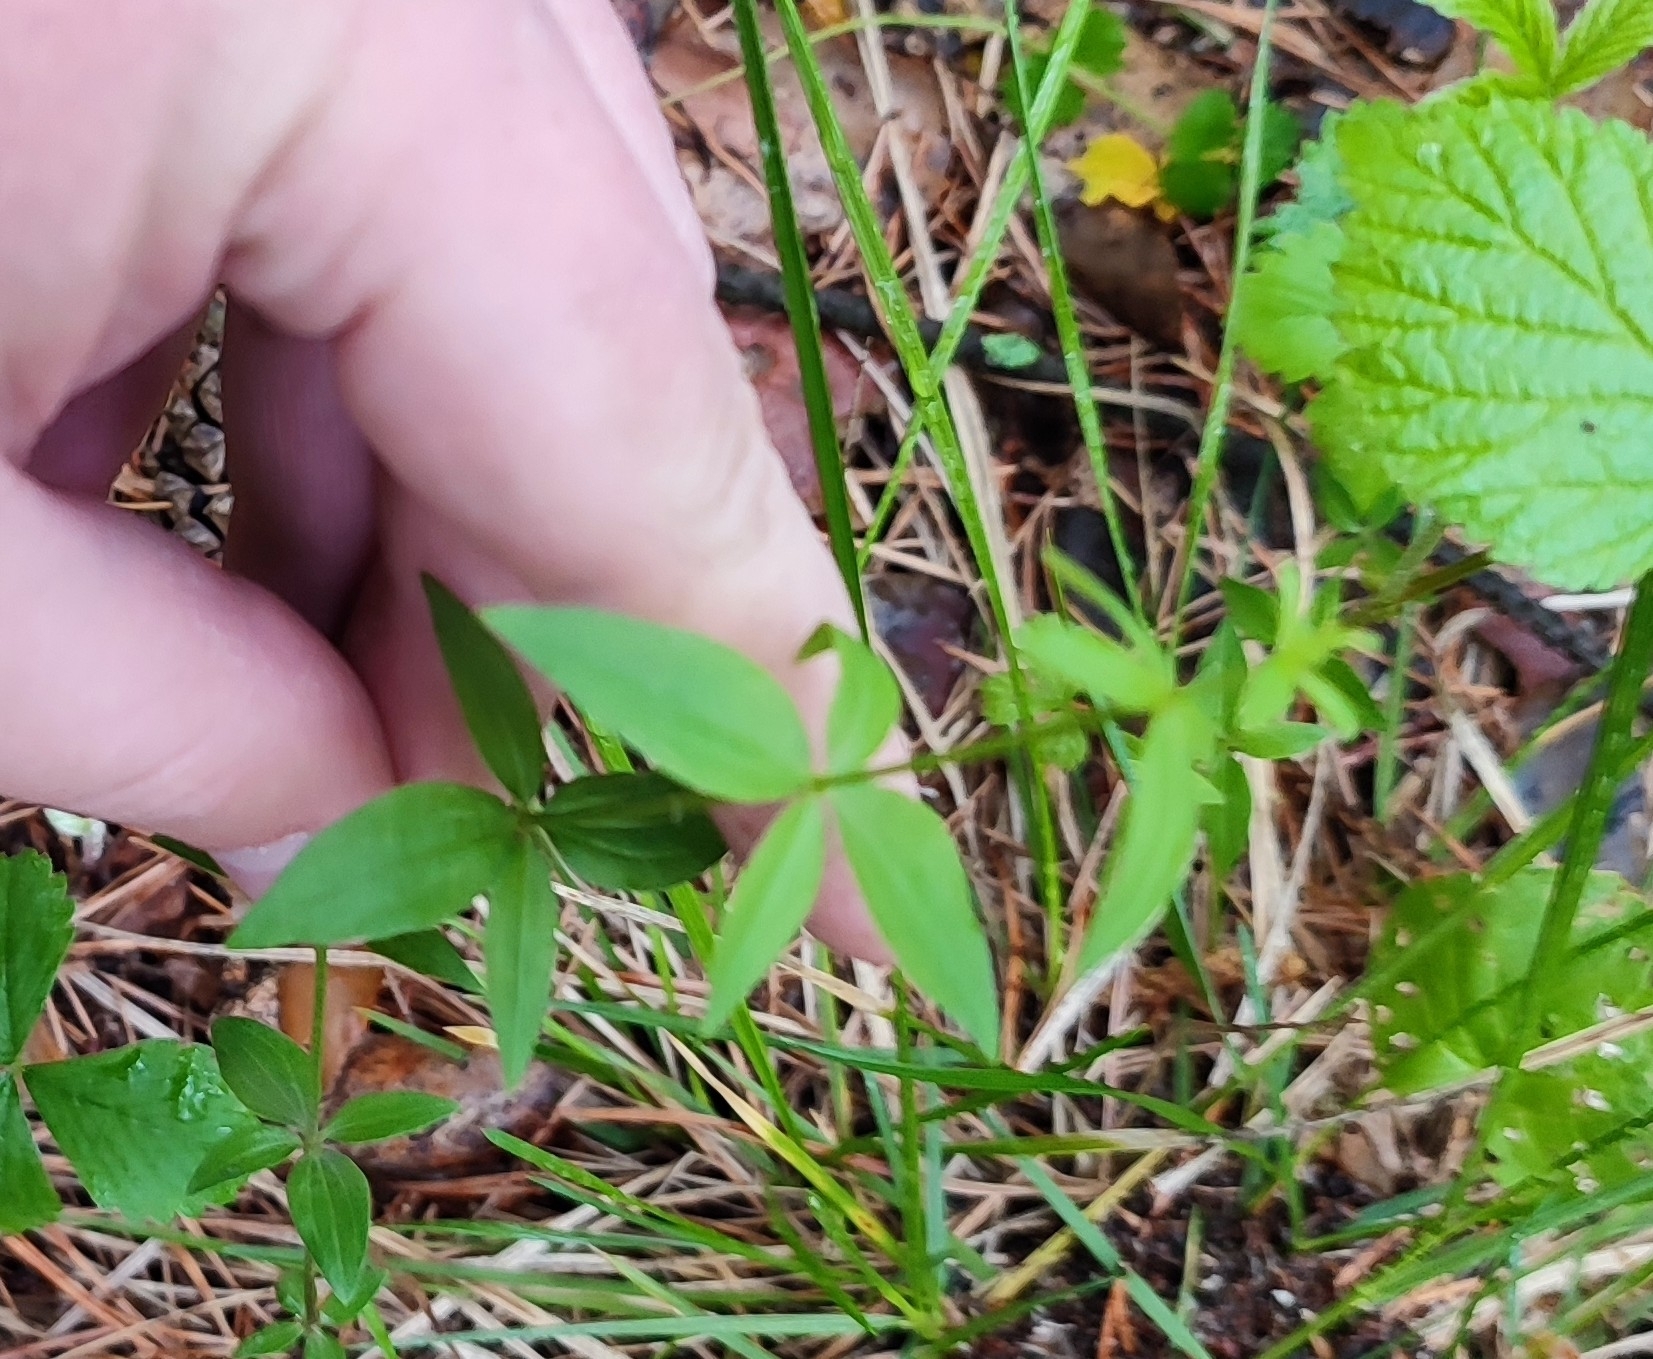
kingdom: Plantae
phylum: Tracheophyta
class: Magnoliopsida
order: Gentianales
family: Rubiaceae
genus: Galium
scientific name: Galium boreale
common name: Northern bedstraw
